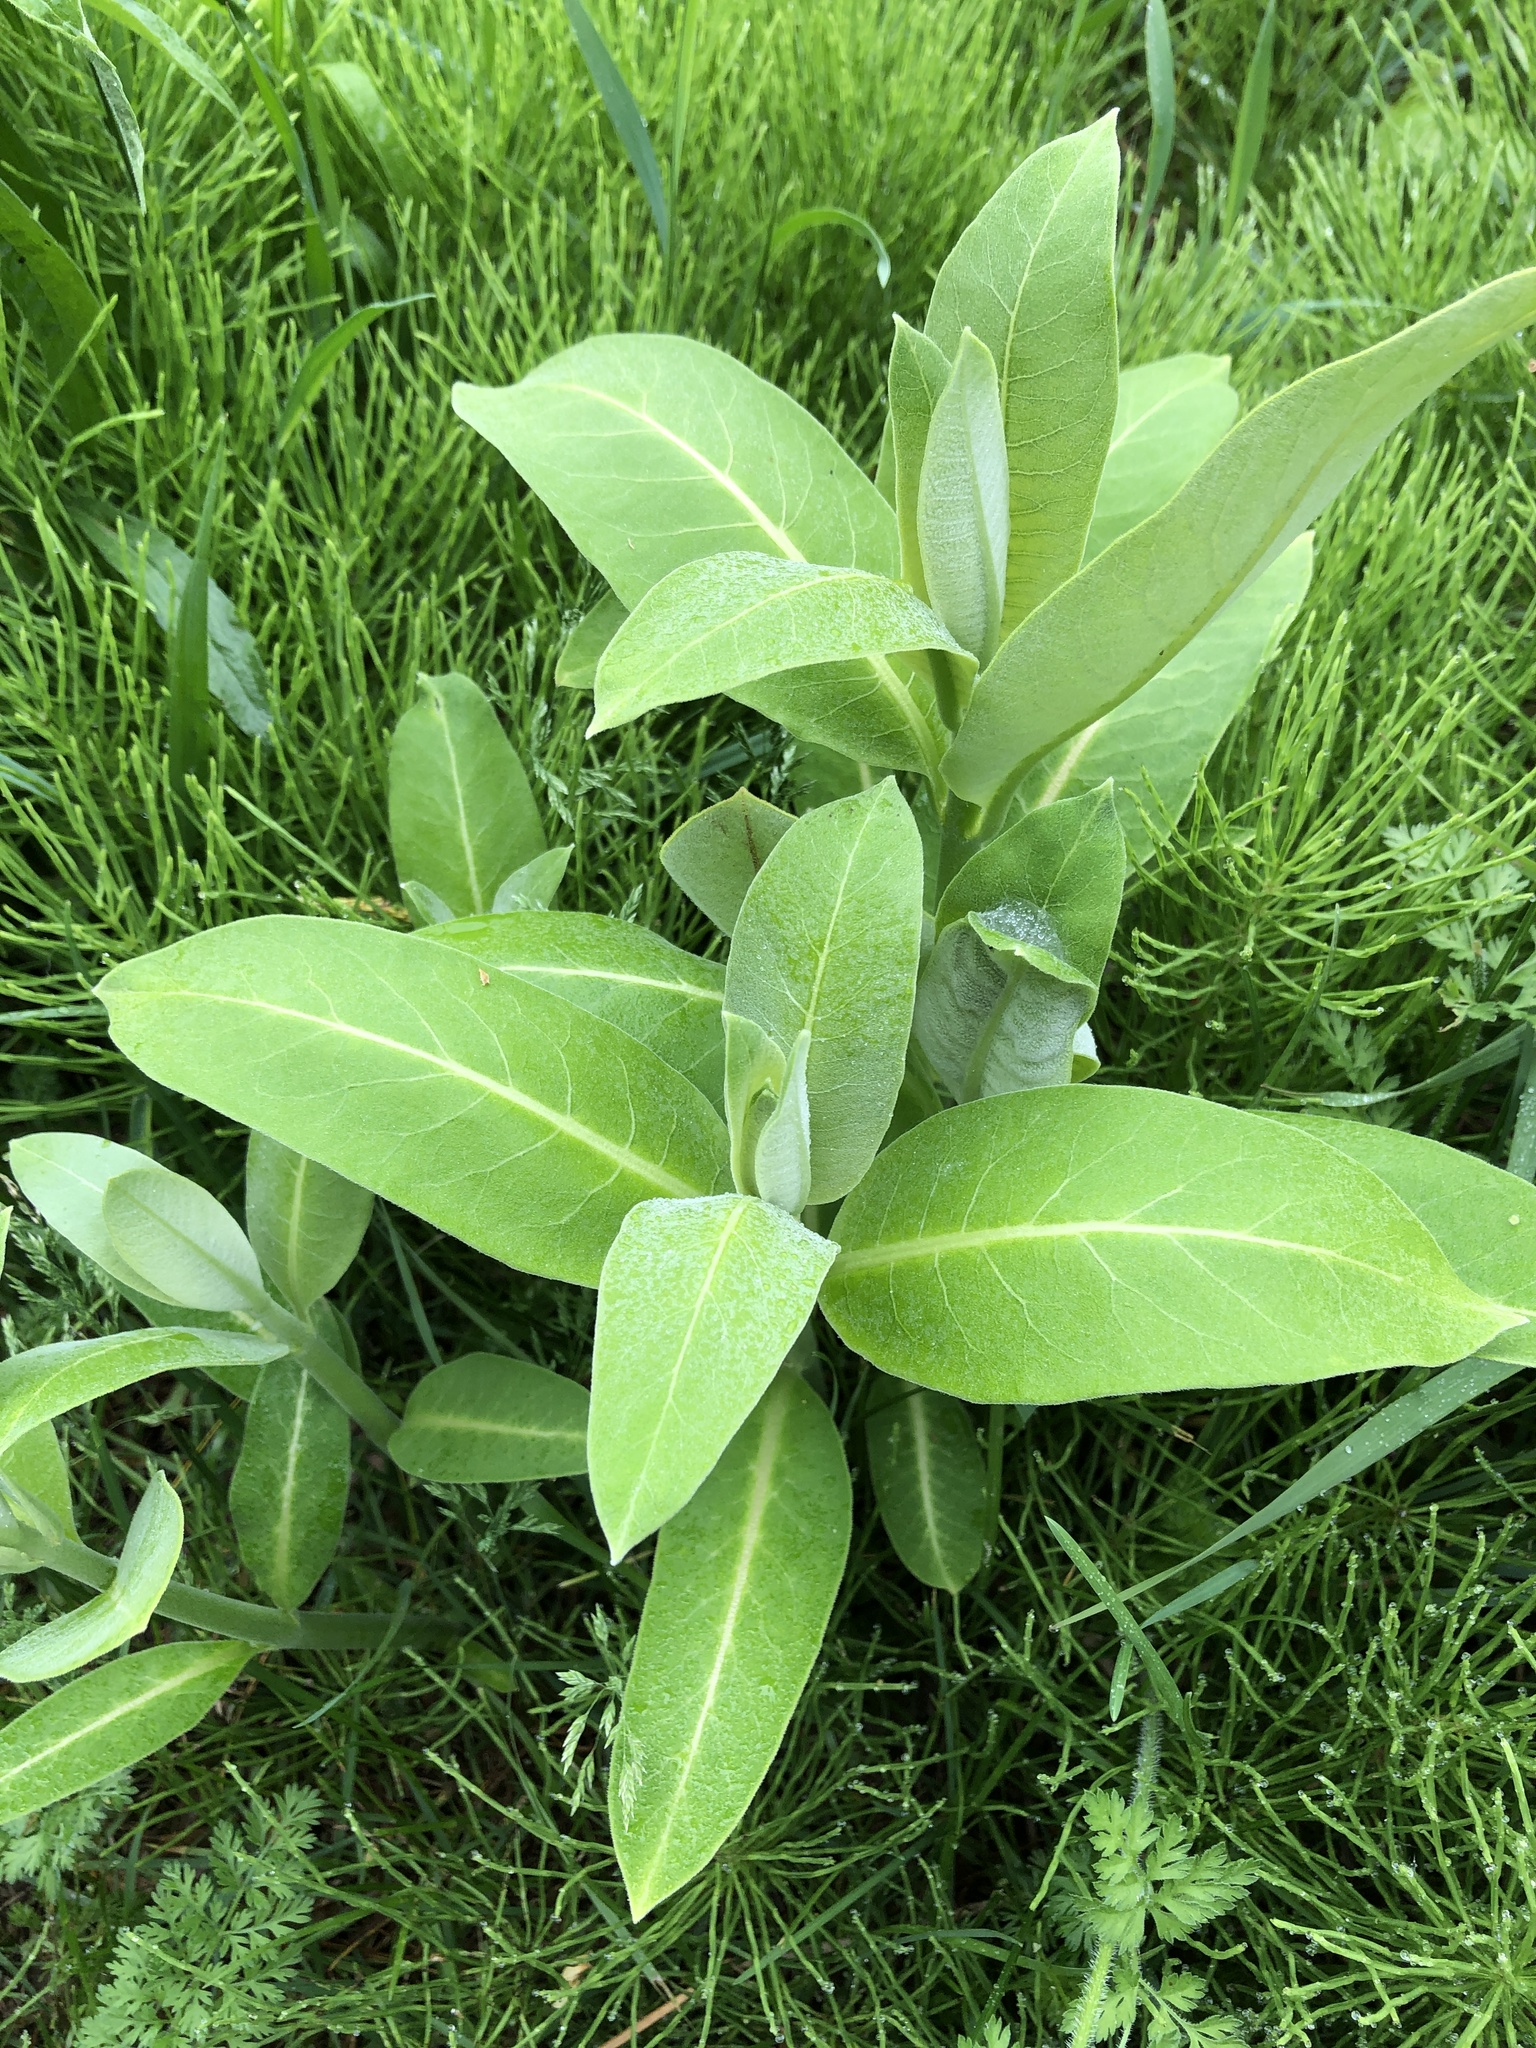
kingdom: Plantae
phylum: Tracheophyta
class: Magnoliopsida
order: Gentianales
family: Apocynaceae
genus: Asclepias
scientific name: Asclepias syriaca
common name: Common milkweed
